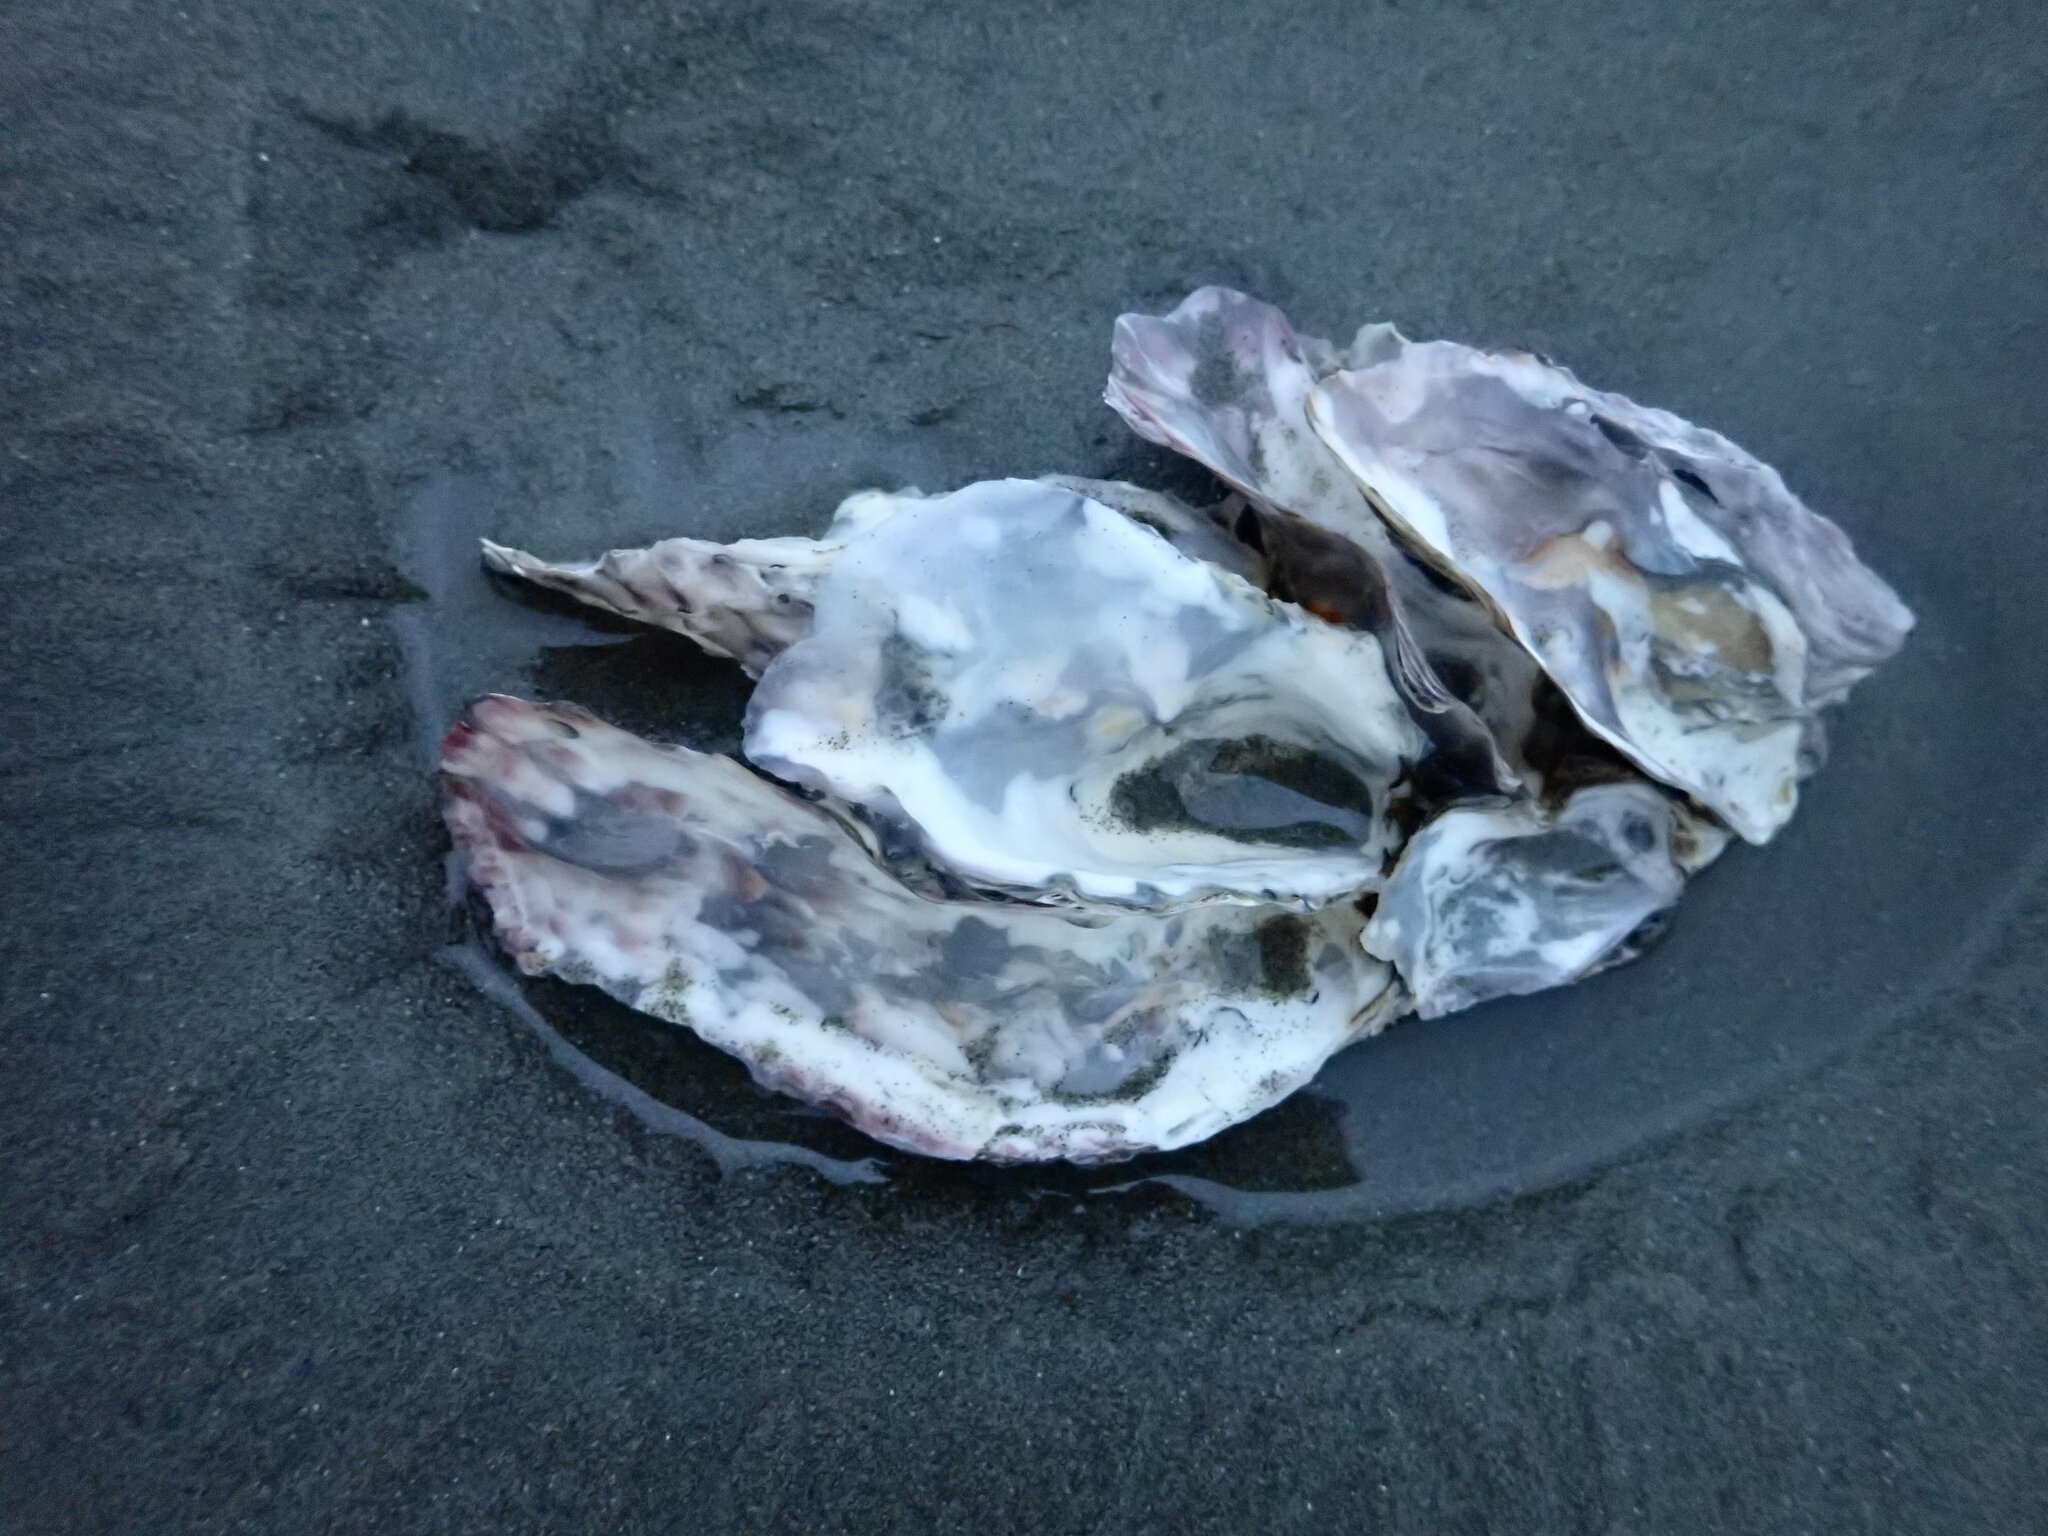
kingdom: Animalia
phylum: Mollusca
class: Bivalvia
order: Ostreida
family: Ostreidae
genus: Magallana
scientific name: Magallana gigas
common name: Pacific oyster
